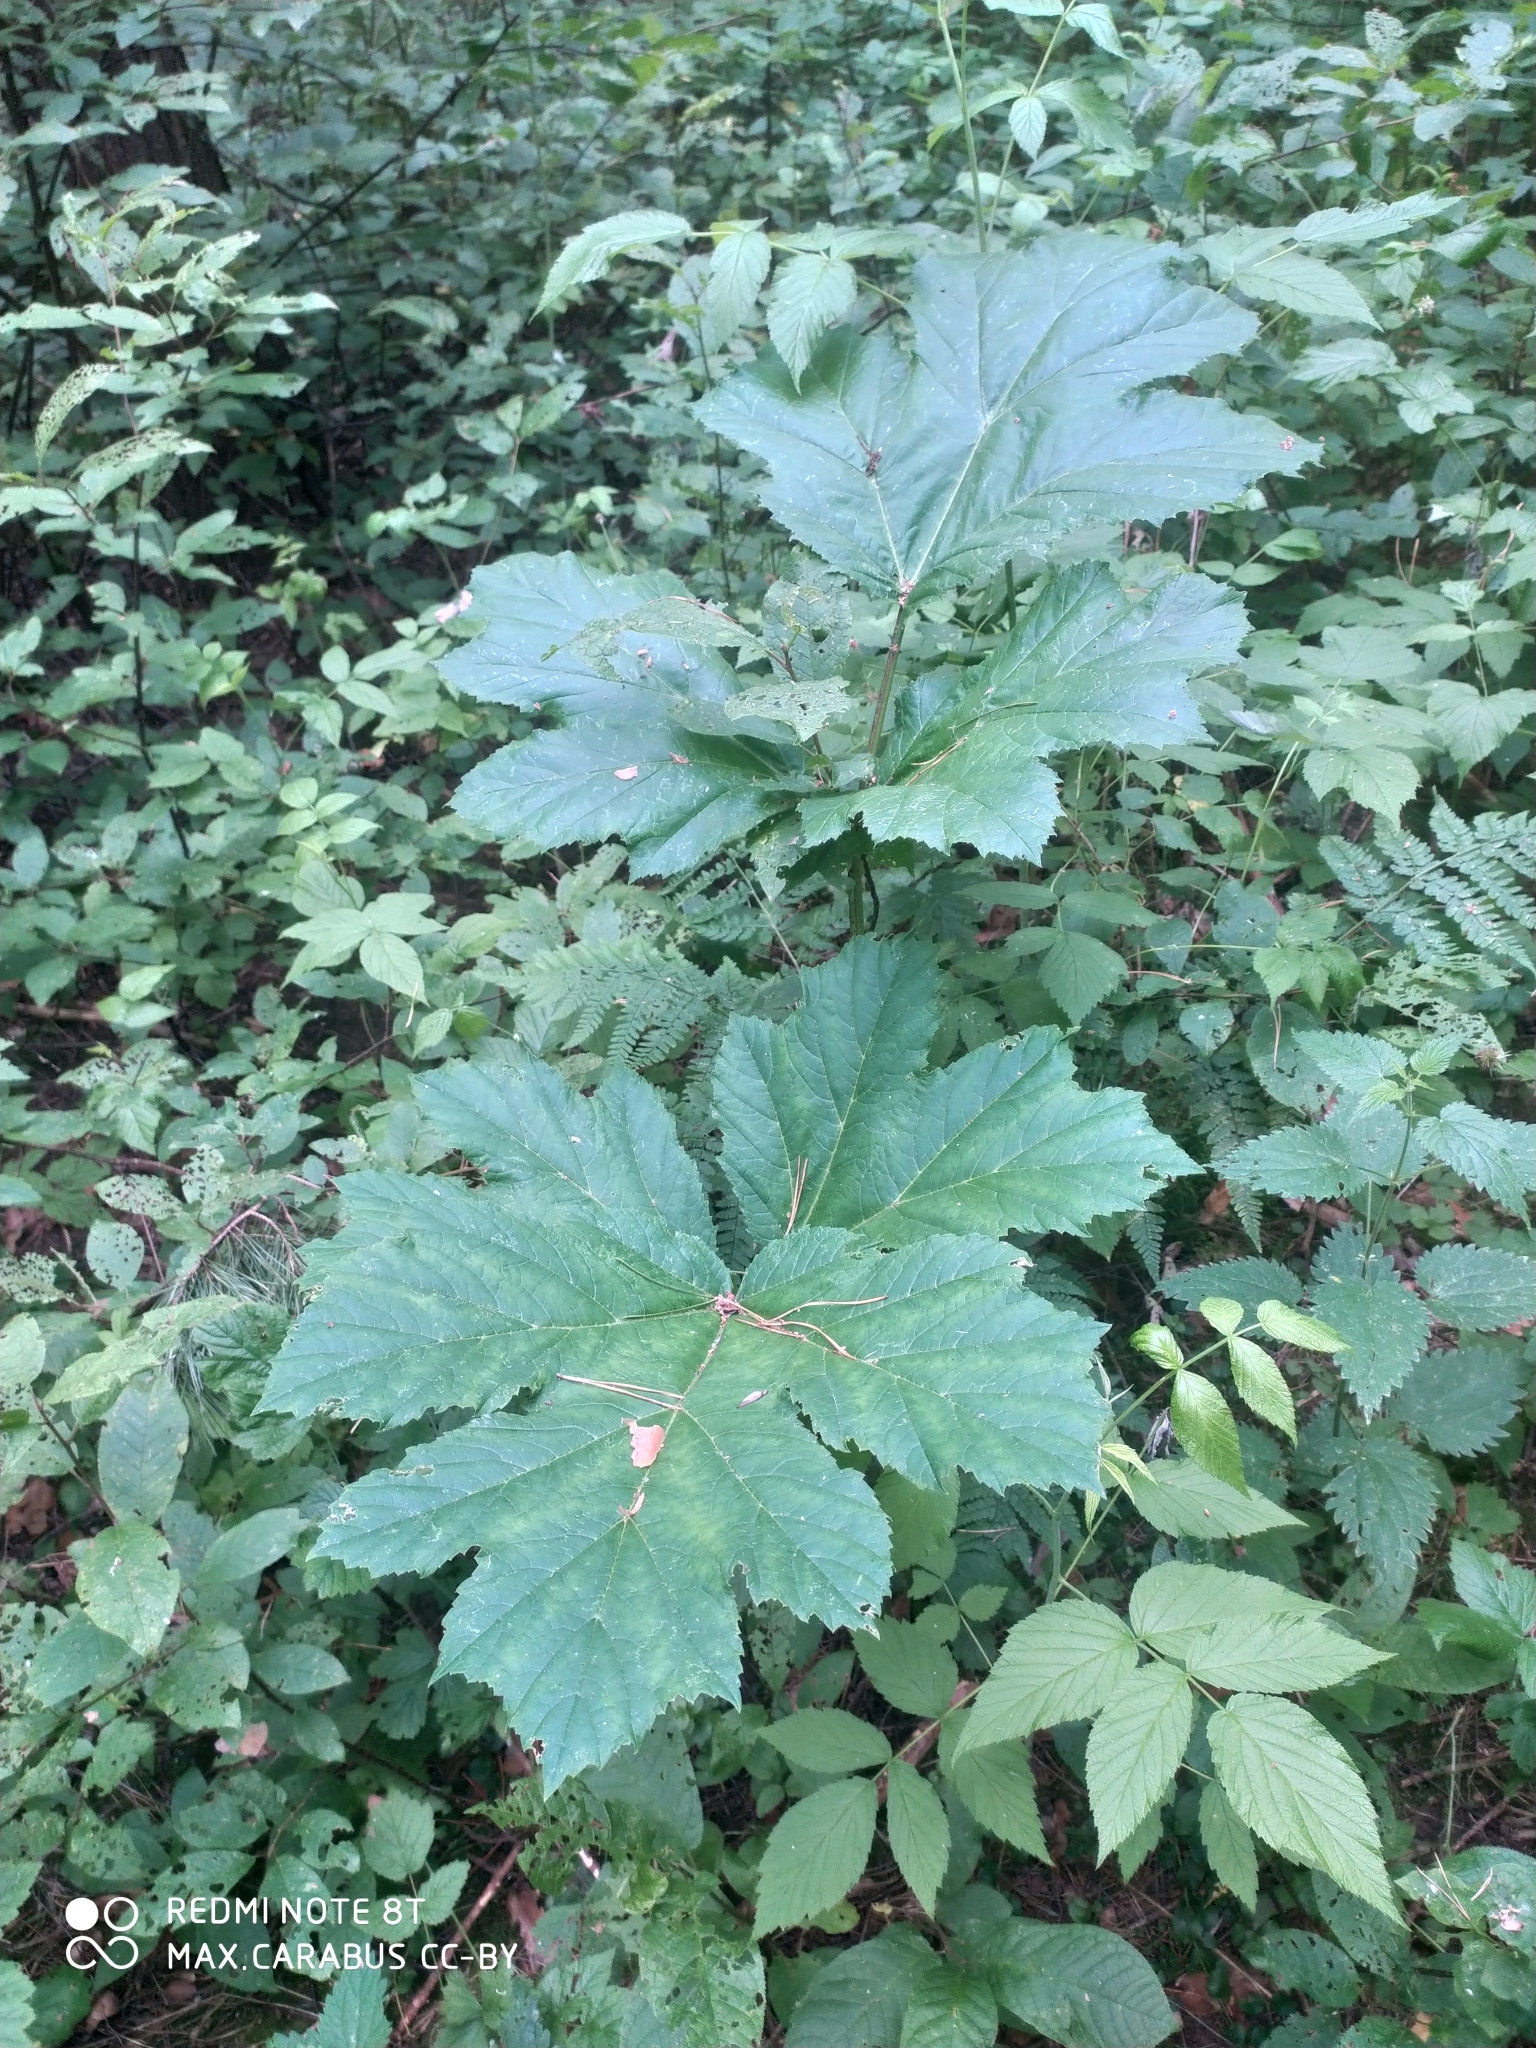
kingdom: Plantae
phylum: Tracheophyta
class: Magnoliopsida
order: Apiales
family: Apiaceae
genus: Heracleum
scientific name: Heracleum sosnowskyi
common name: Sosnowsky's hogweed
